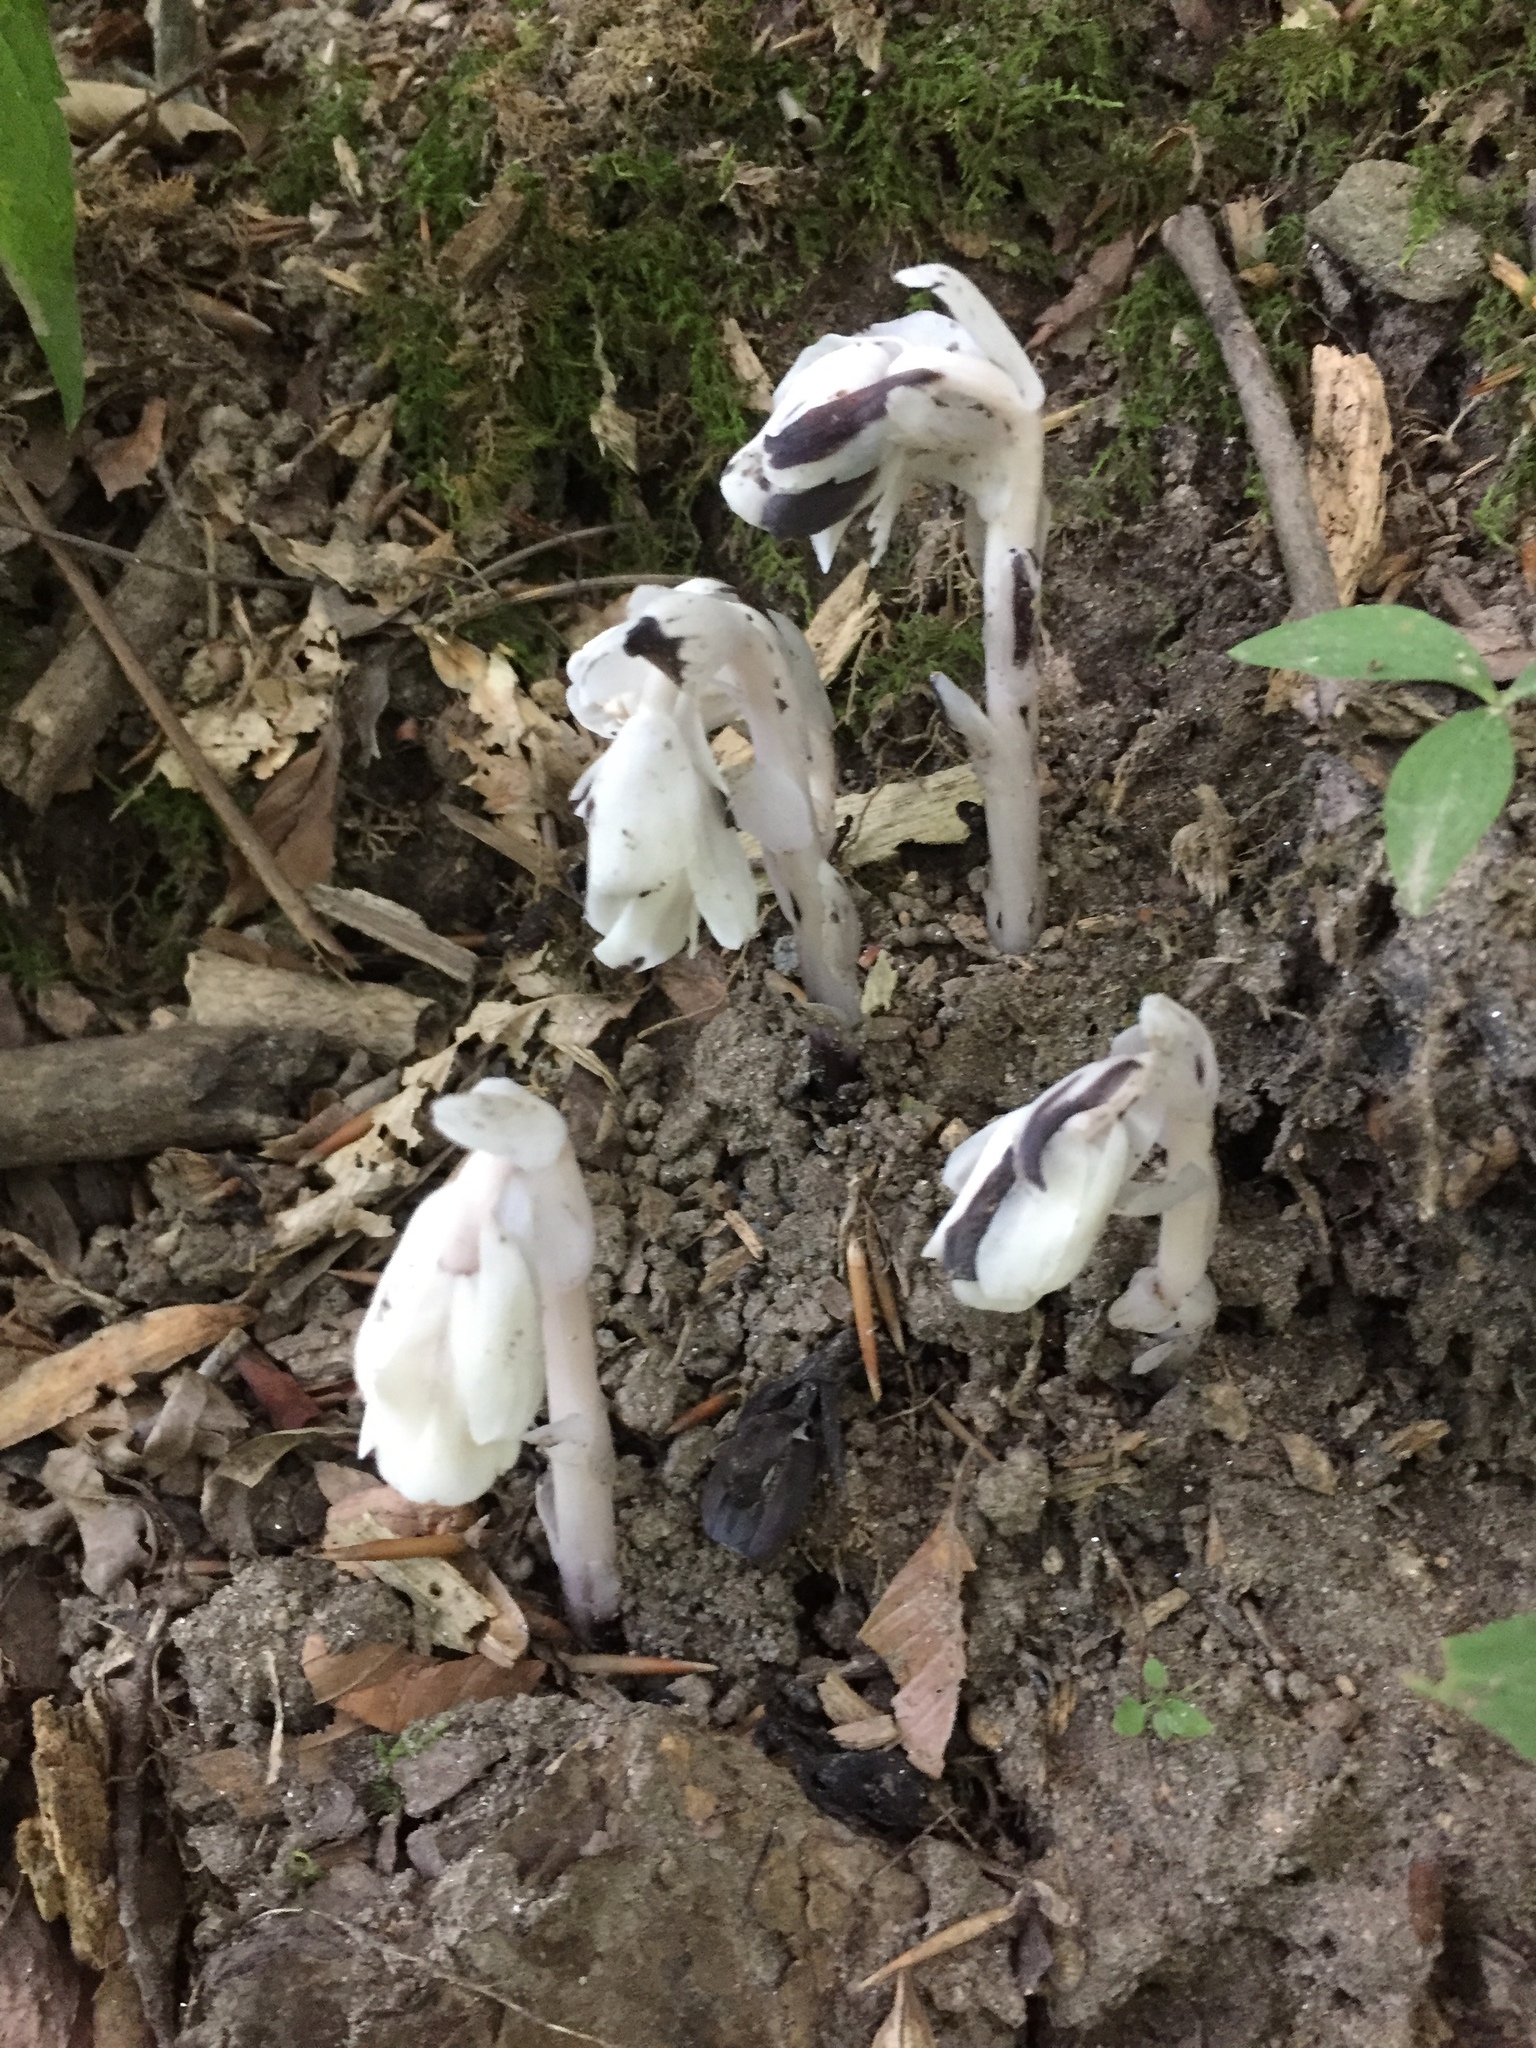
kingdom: Plantae
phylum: Tracheophyta
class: Magnoliopsida
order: Ericales
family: Ericaceae
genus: Monotropa
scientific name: Monotropa uniflora
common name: Convulsion root
